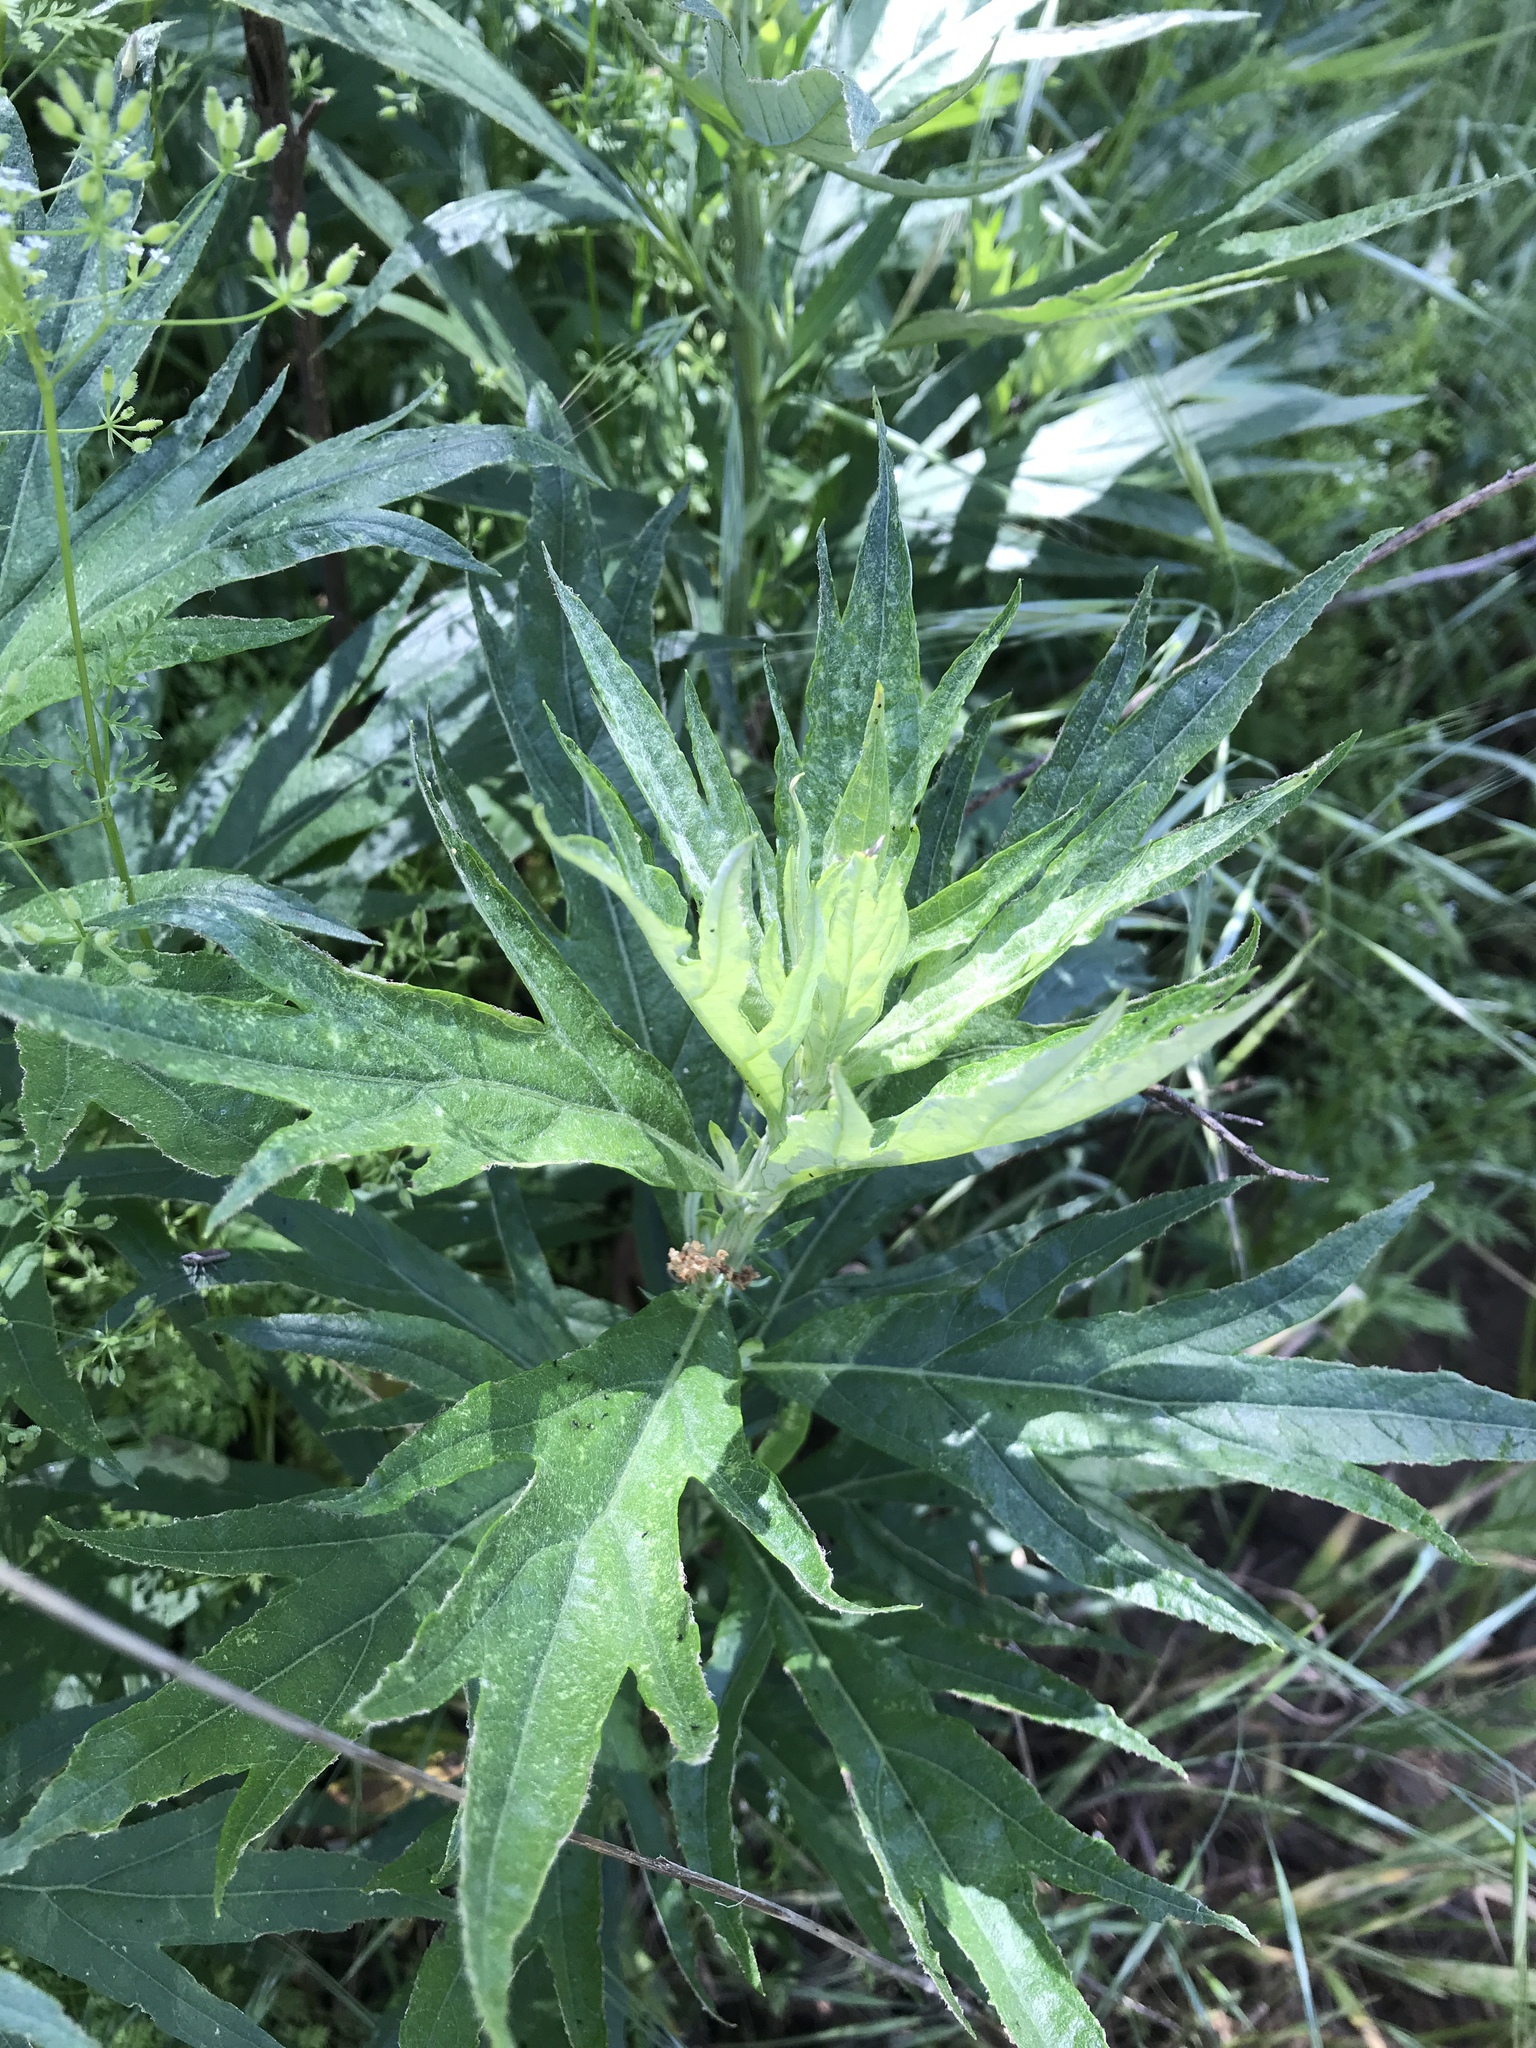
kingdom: Plantae
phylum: Tracheophyta
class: Magnoliopsida
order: Asterales
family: Asteraceae
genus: Artemisia
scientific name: Artemisia douglasiana
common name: Northwest mugwort
